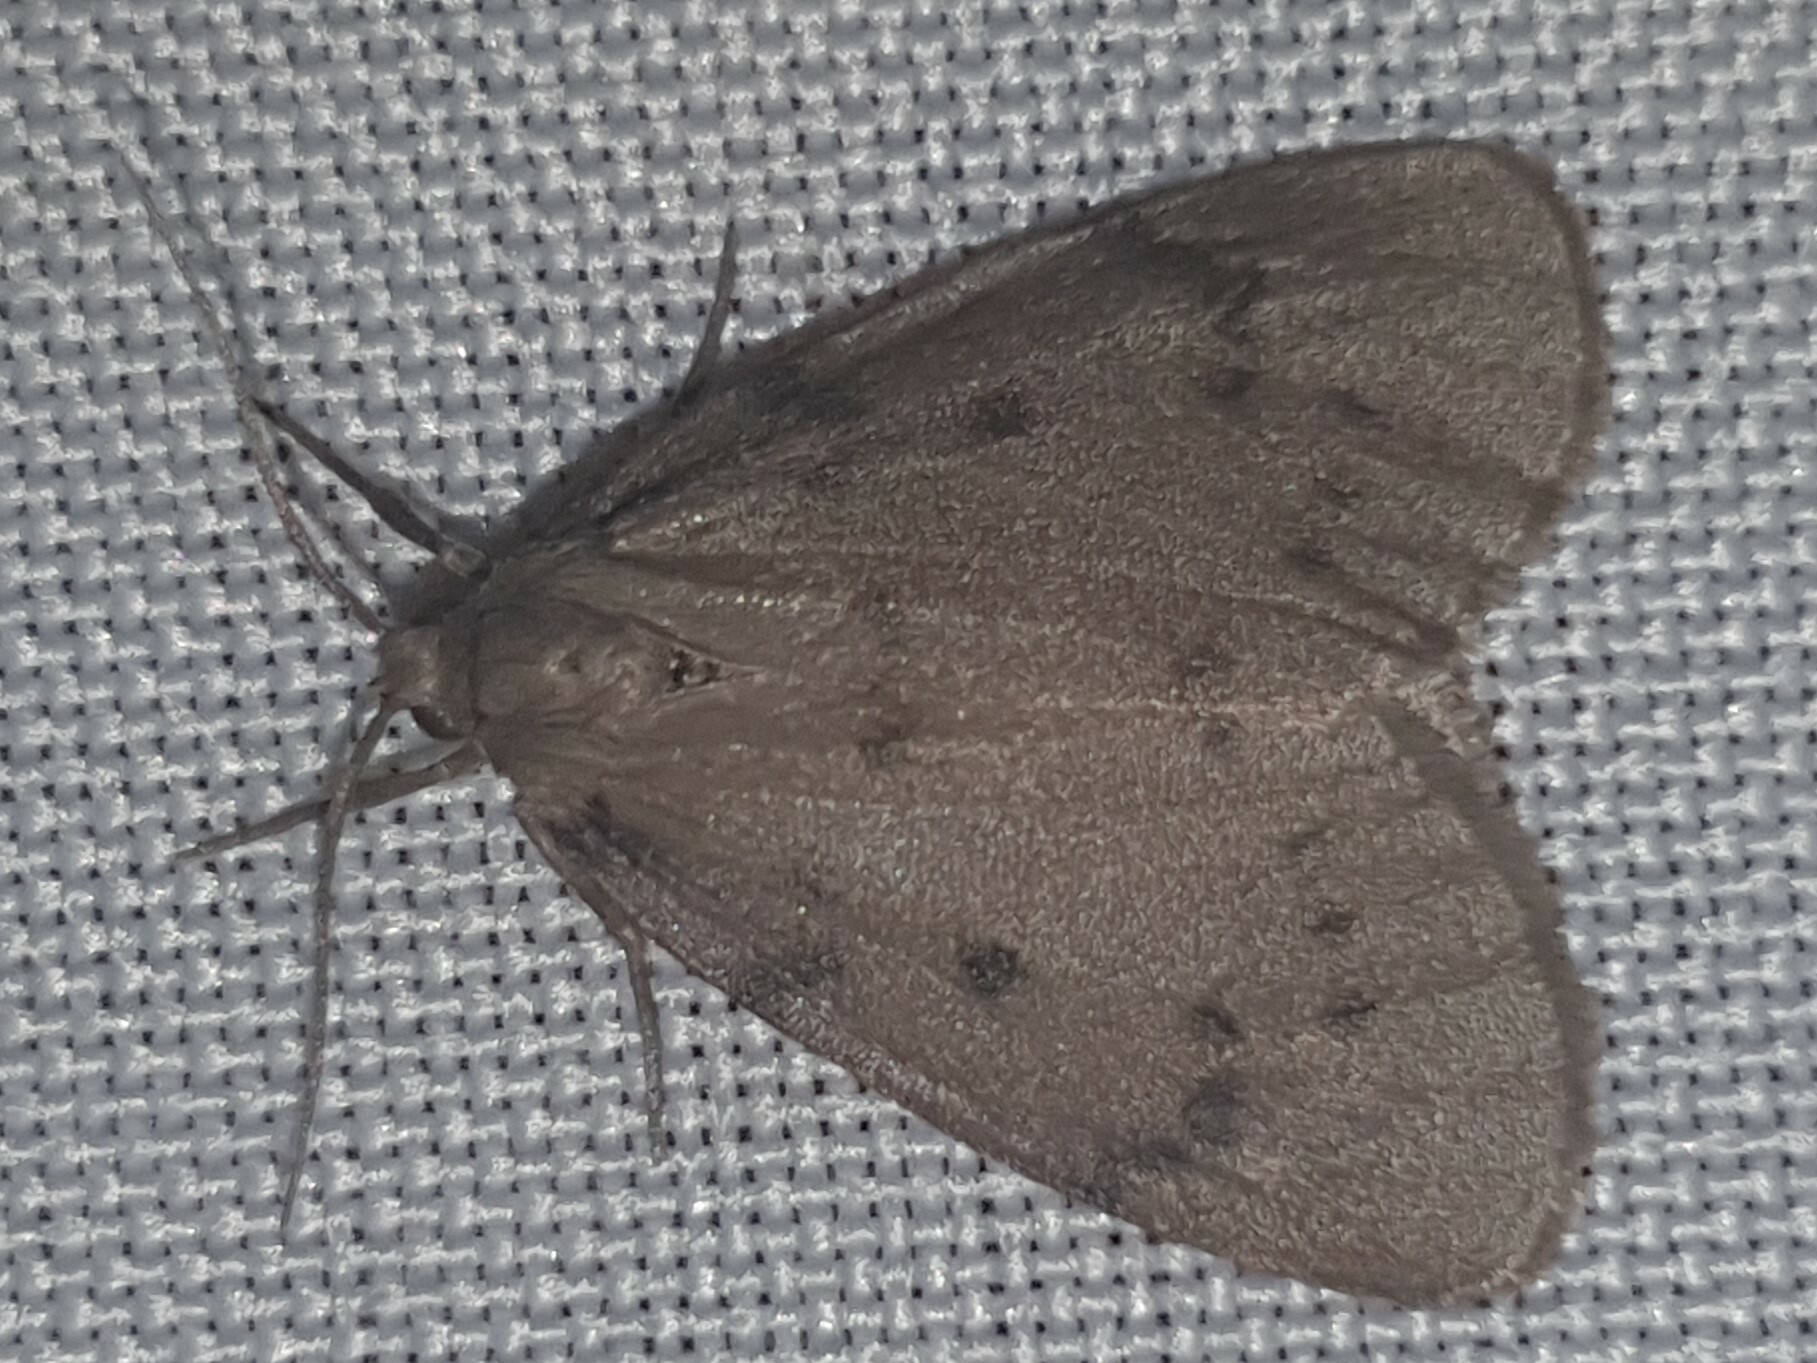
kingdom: Animalia
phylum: Arthropoda
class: Insecta
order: Lepidoptera
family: Erebidae
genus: Paidia
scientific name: Paidia rica
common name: Glaucous muslin
